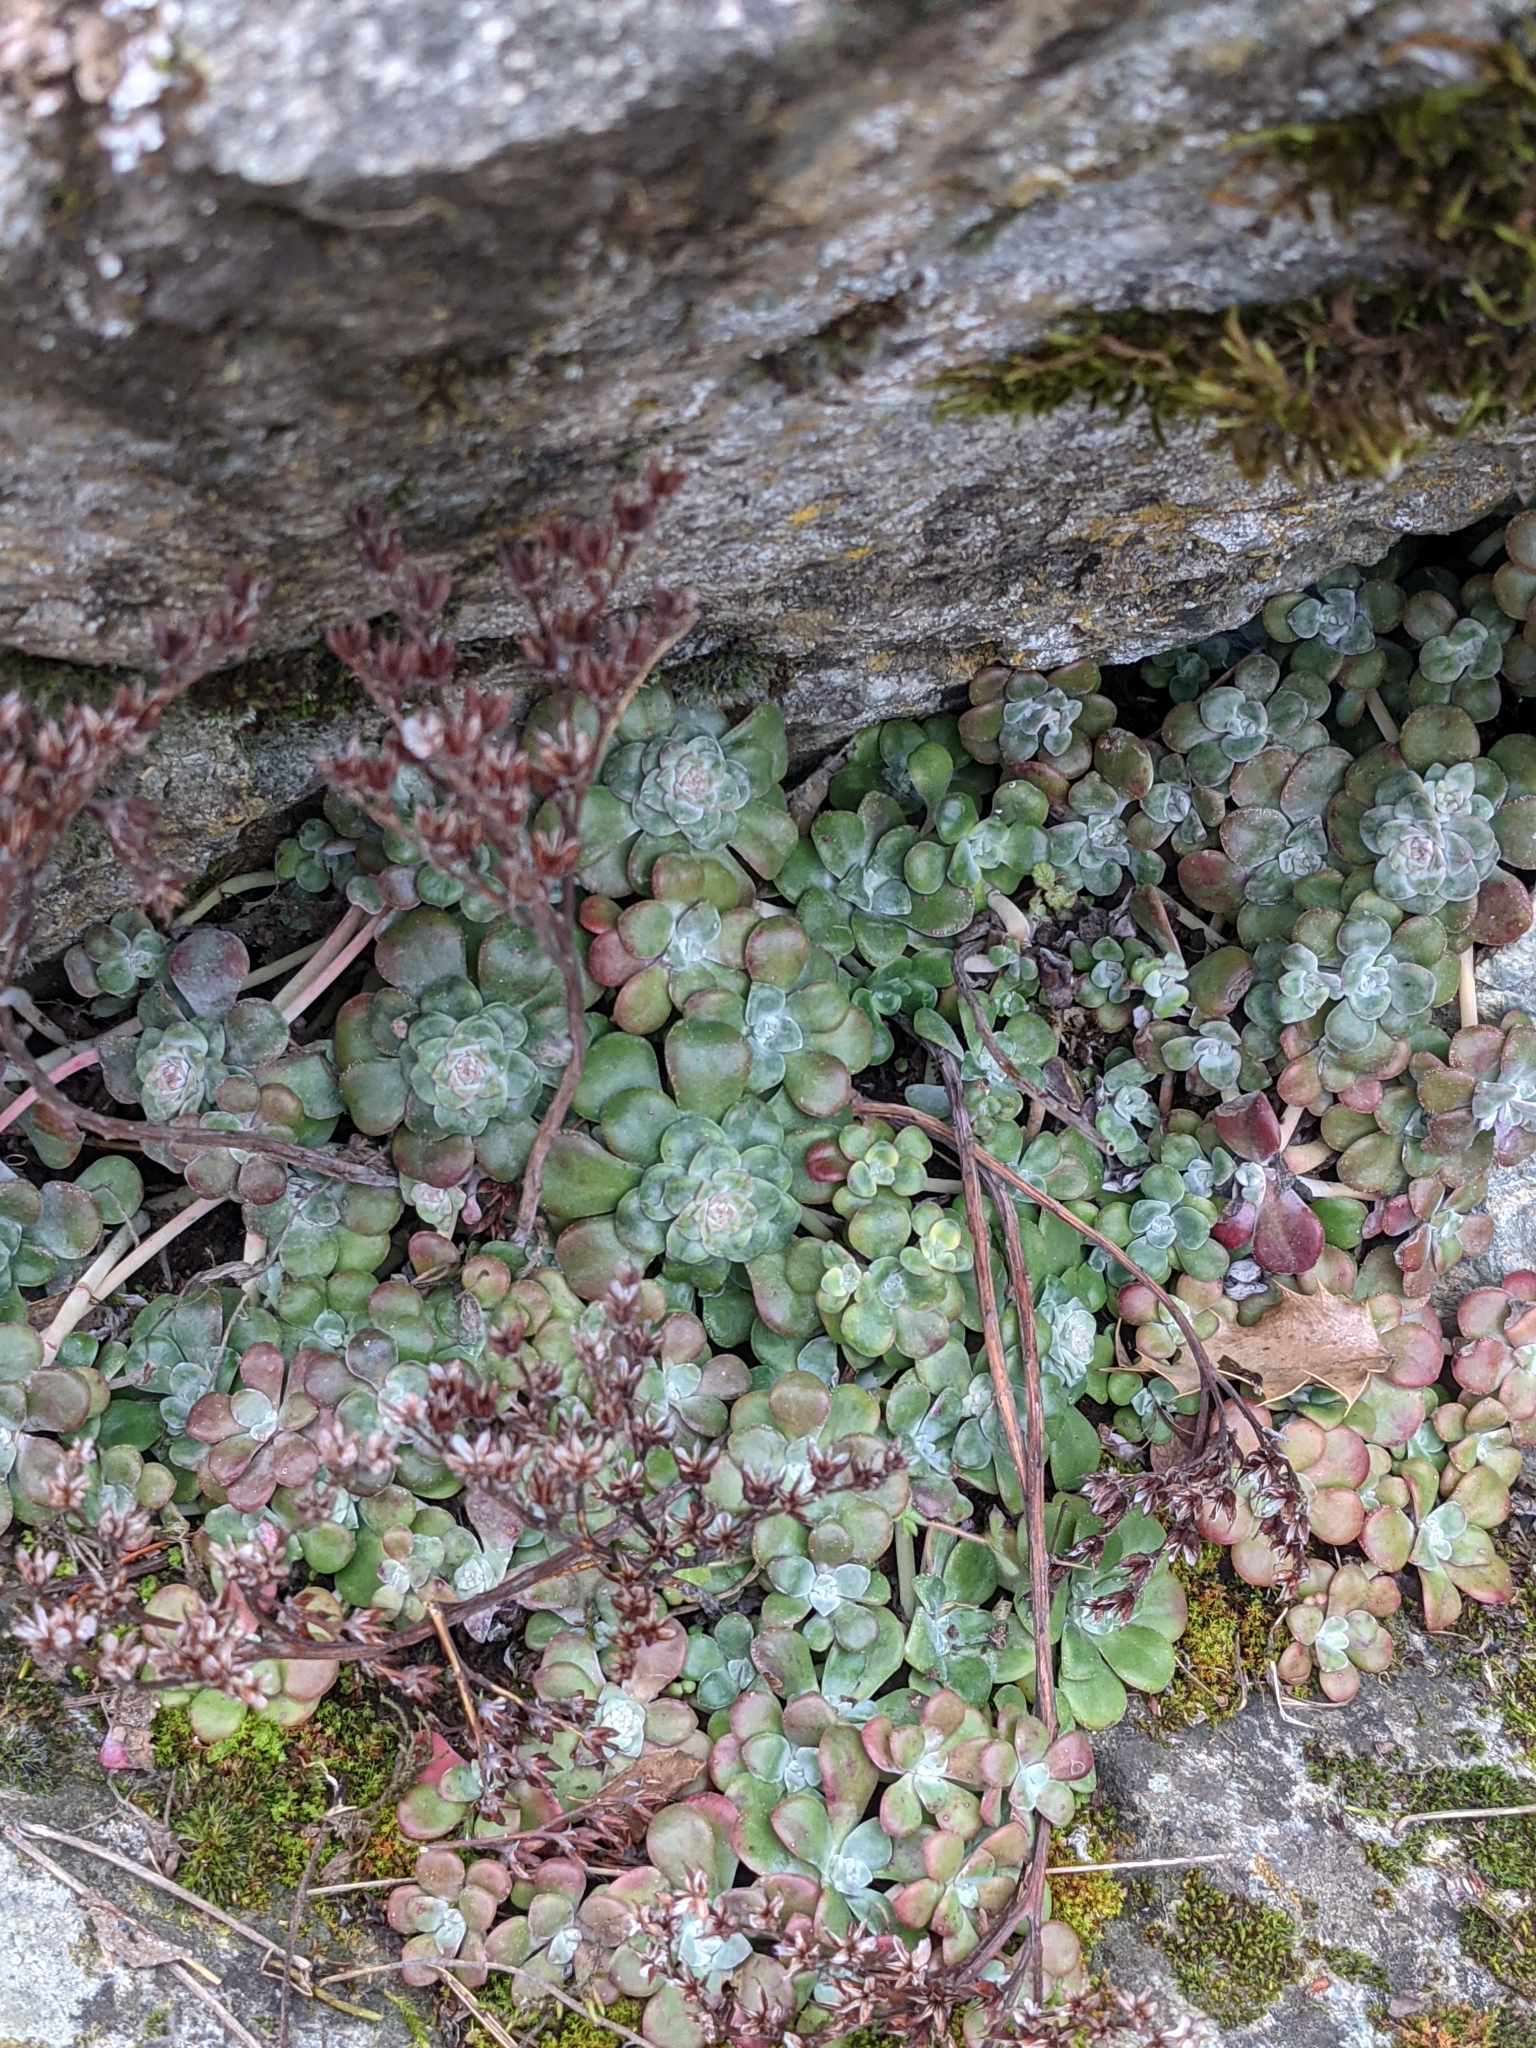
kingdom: Plantae
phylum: Tracheophyta
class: Magnoliopsida
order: Saxifragales
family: Crassulaceae
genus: Sedum
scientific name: Sedum spathulifolium
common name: Colorado stonecrop
